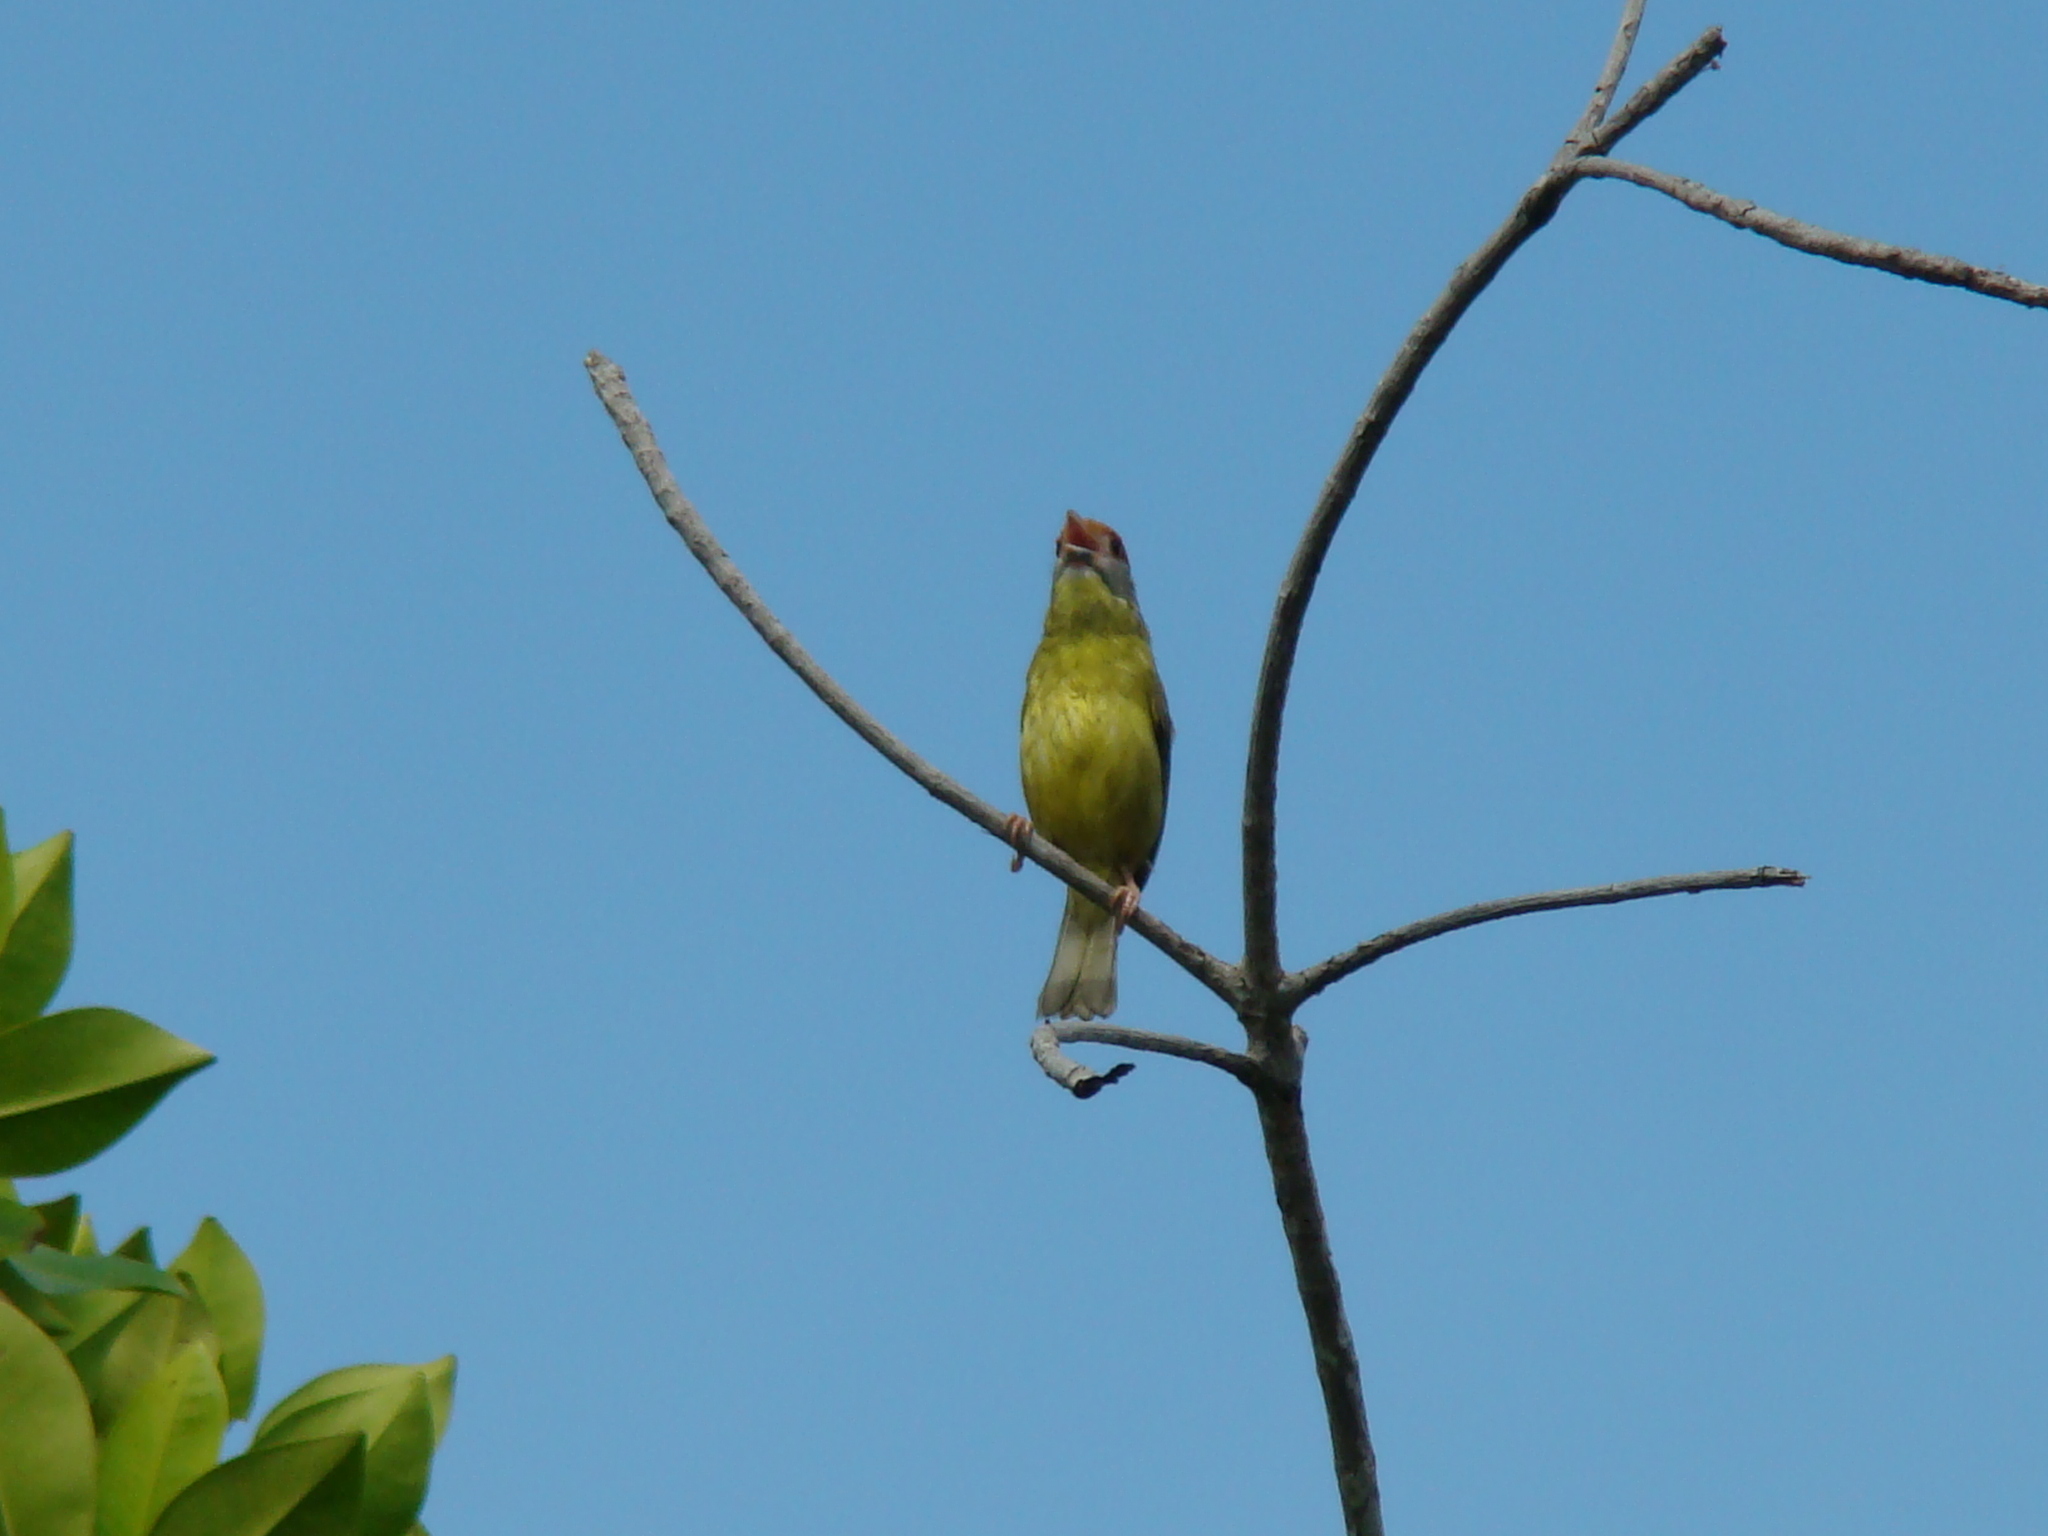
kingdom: Animalia
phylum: Chordata
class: Aves
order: Passeriformes
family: Vireonidae
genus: Cyclarhis
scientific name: Cyclarhis gujanensis
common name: Rufous-browed peppershrike
